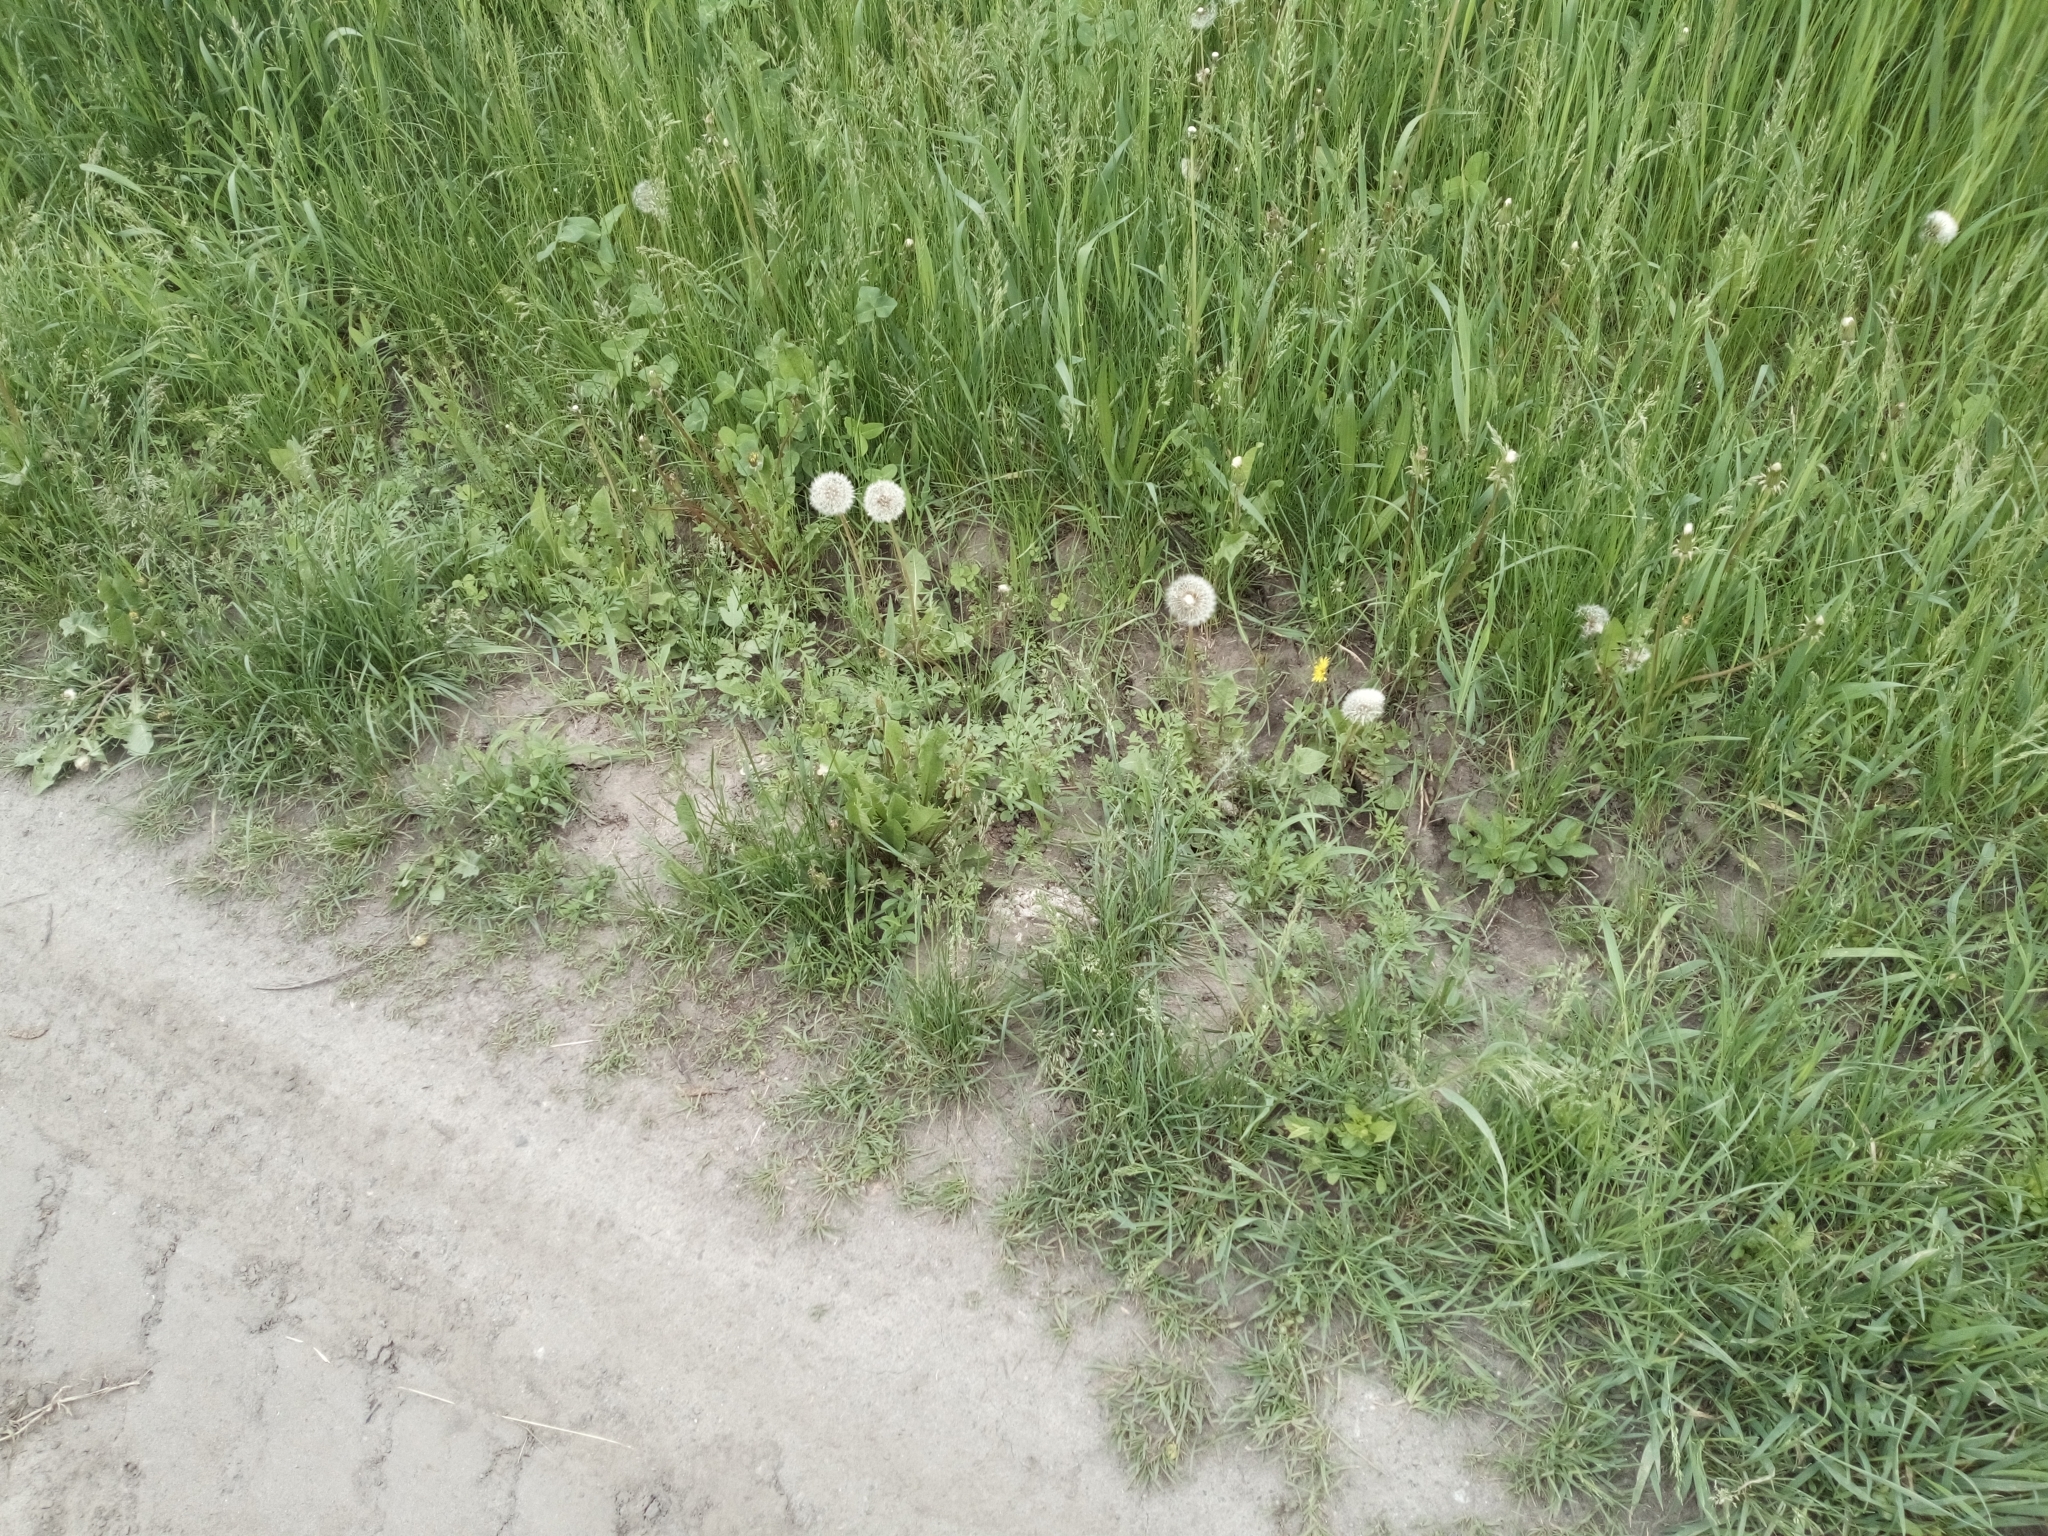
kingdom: Plantae
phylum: Tracheophyta
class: Magnoliopsida
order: Asterales
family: Asteraceae
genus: Ambrosia
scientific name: Ambrosia artemisiifolia
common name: Annual ragweed
